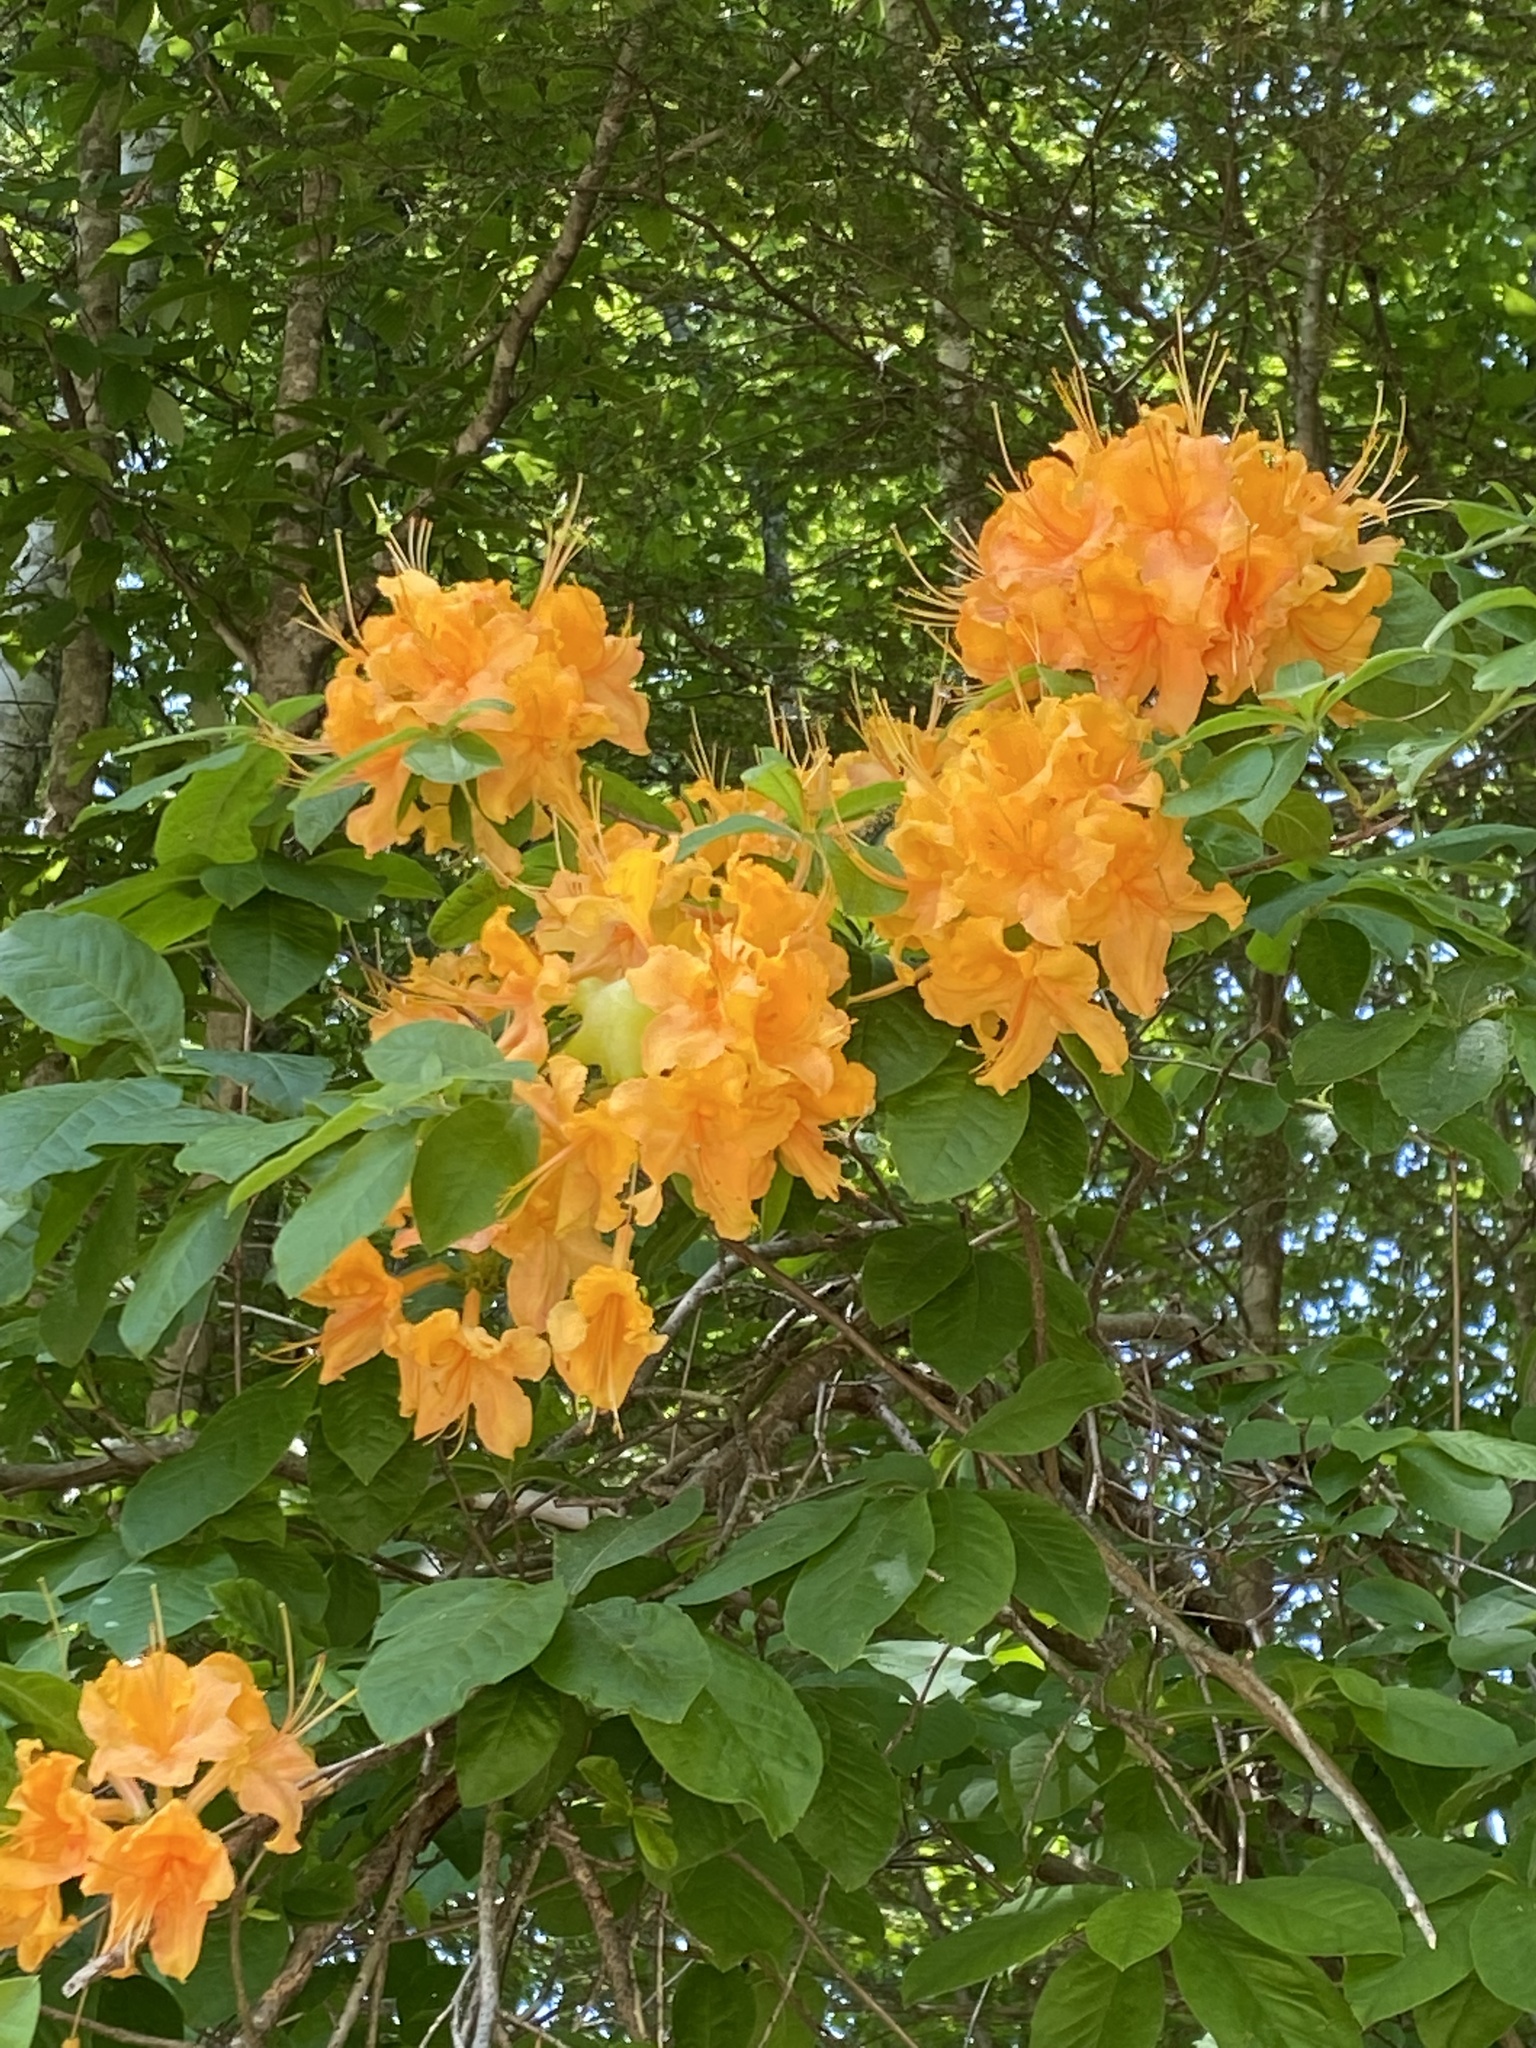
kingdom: Plantae
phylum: Tracheophyta
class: Magnoliopsida
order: Ericales
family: Ericaceae
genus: Rhododendron
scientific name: Rhododendron calendulaceum
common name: Flame azalea
